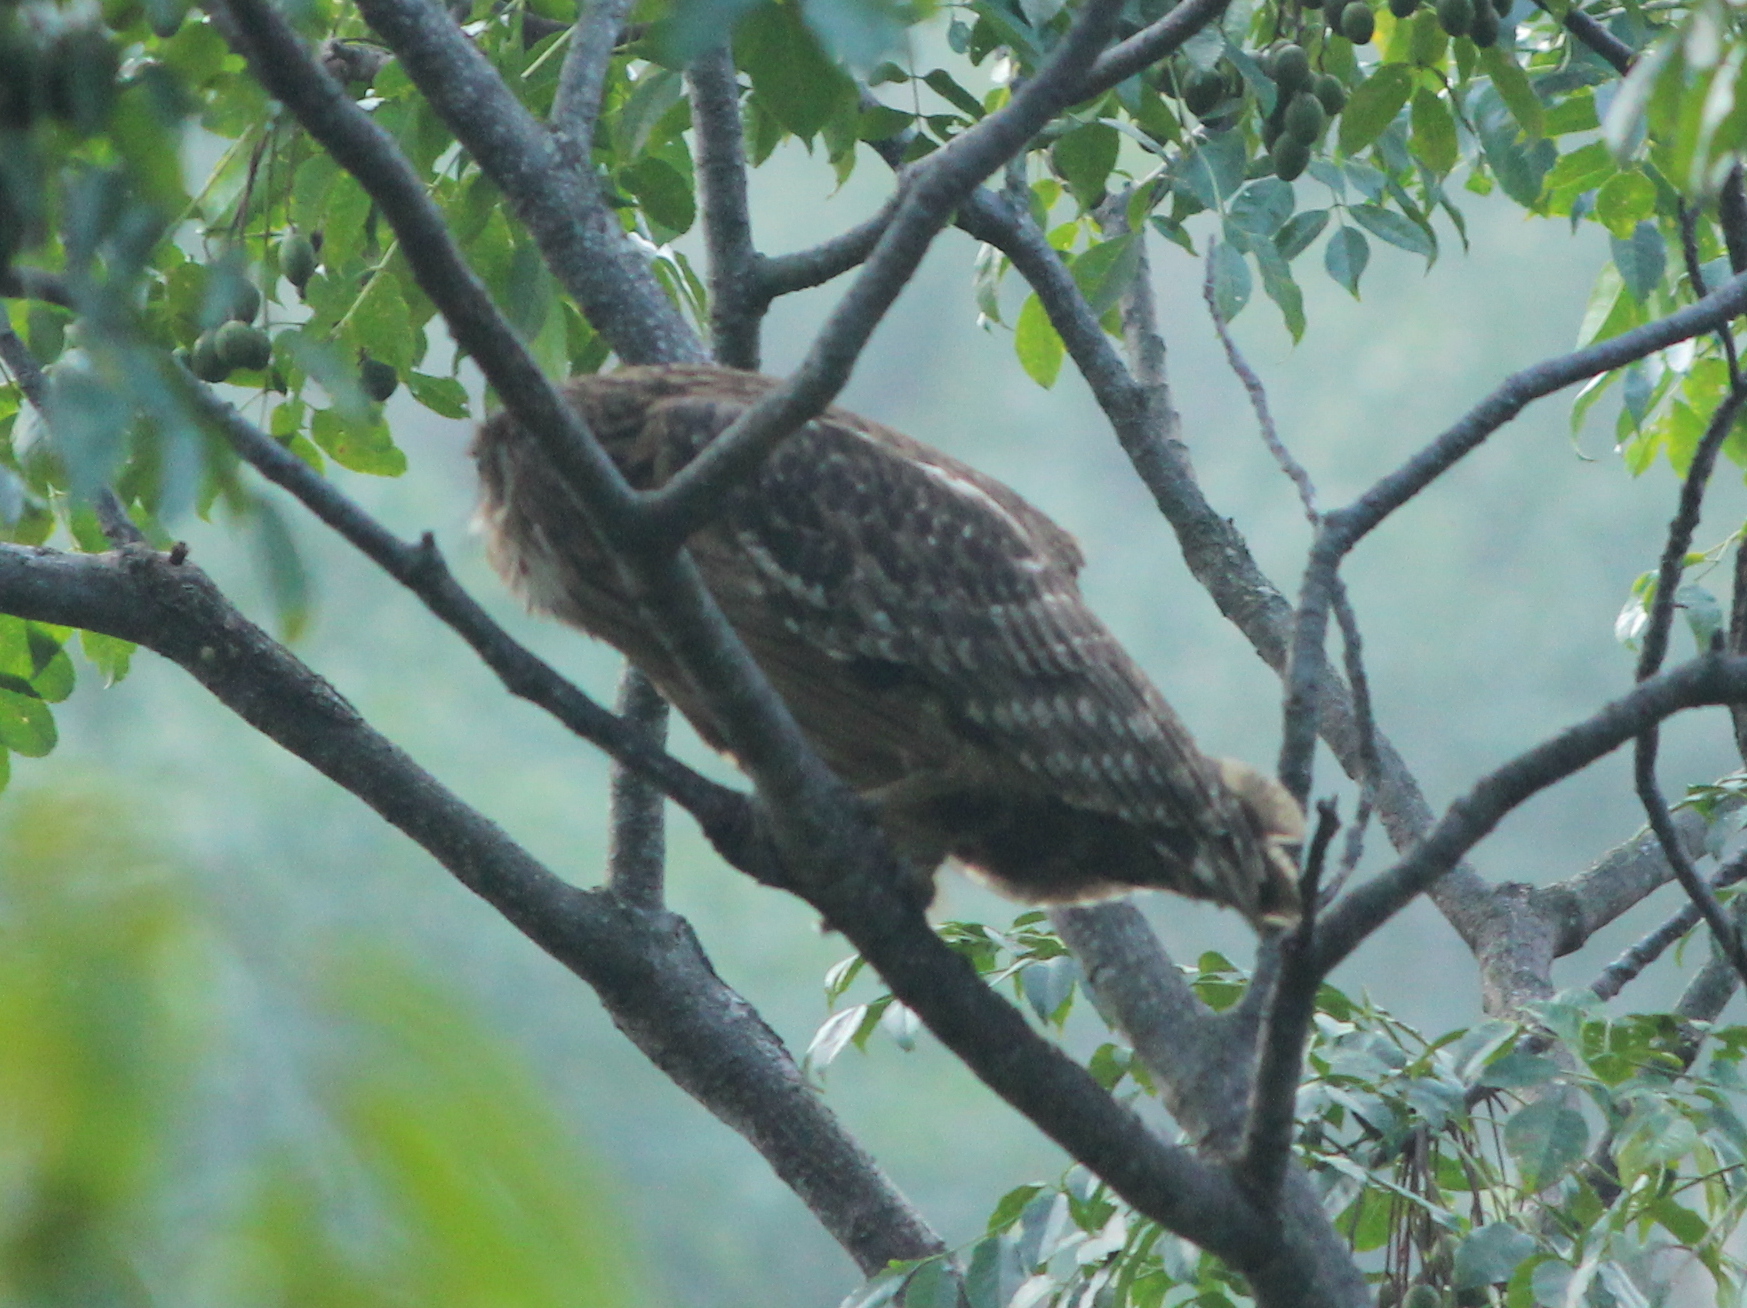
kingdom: Animalia
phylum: Chordata
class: Aves
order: Strigiformes
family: Strigidae
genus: Ketupa
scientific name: Ketupa zeylonensis
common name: Brown fish owl
